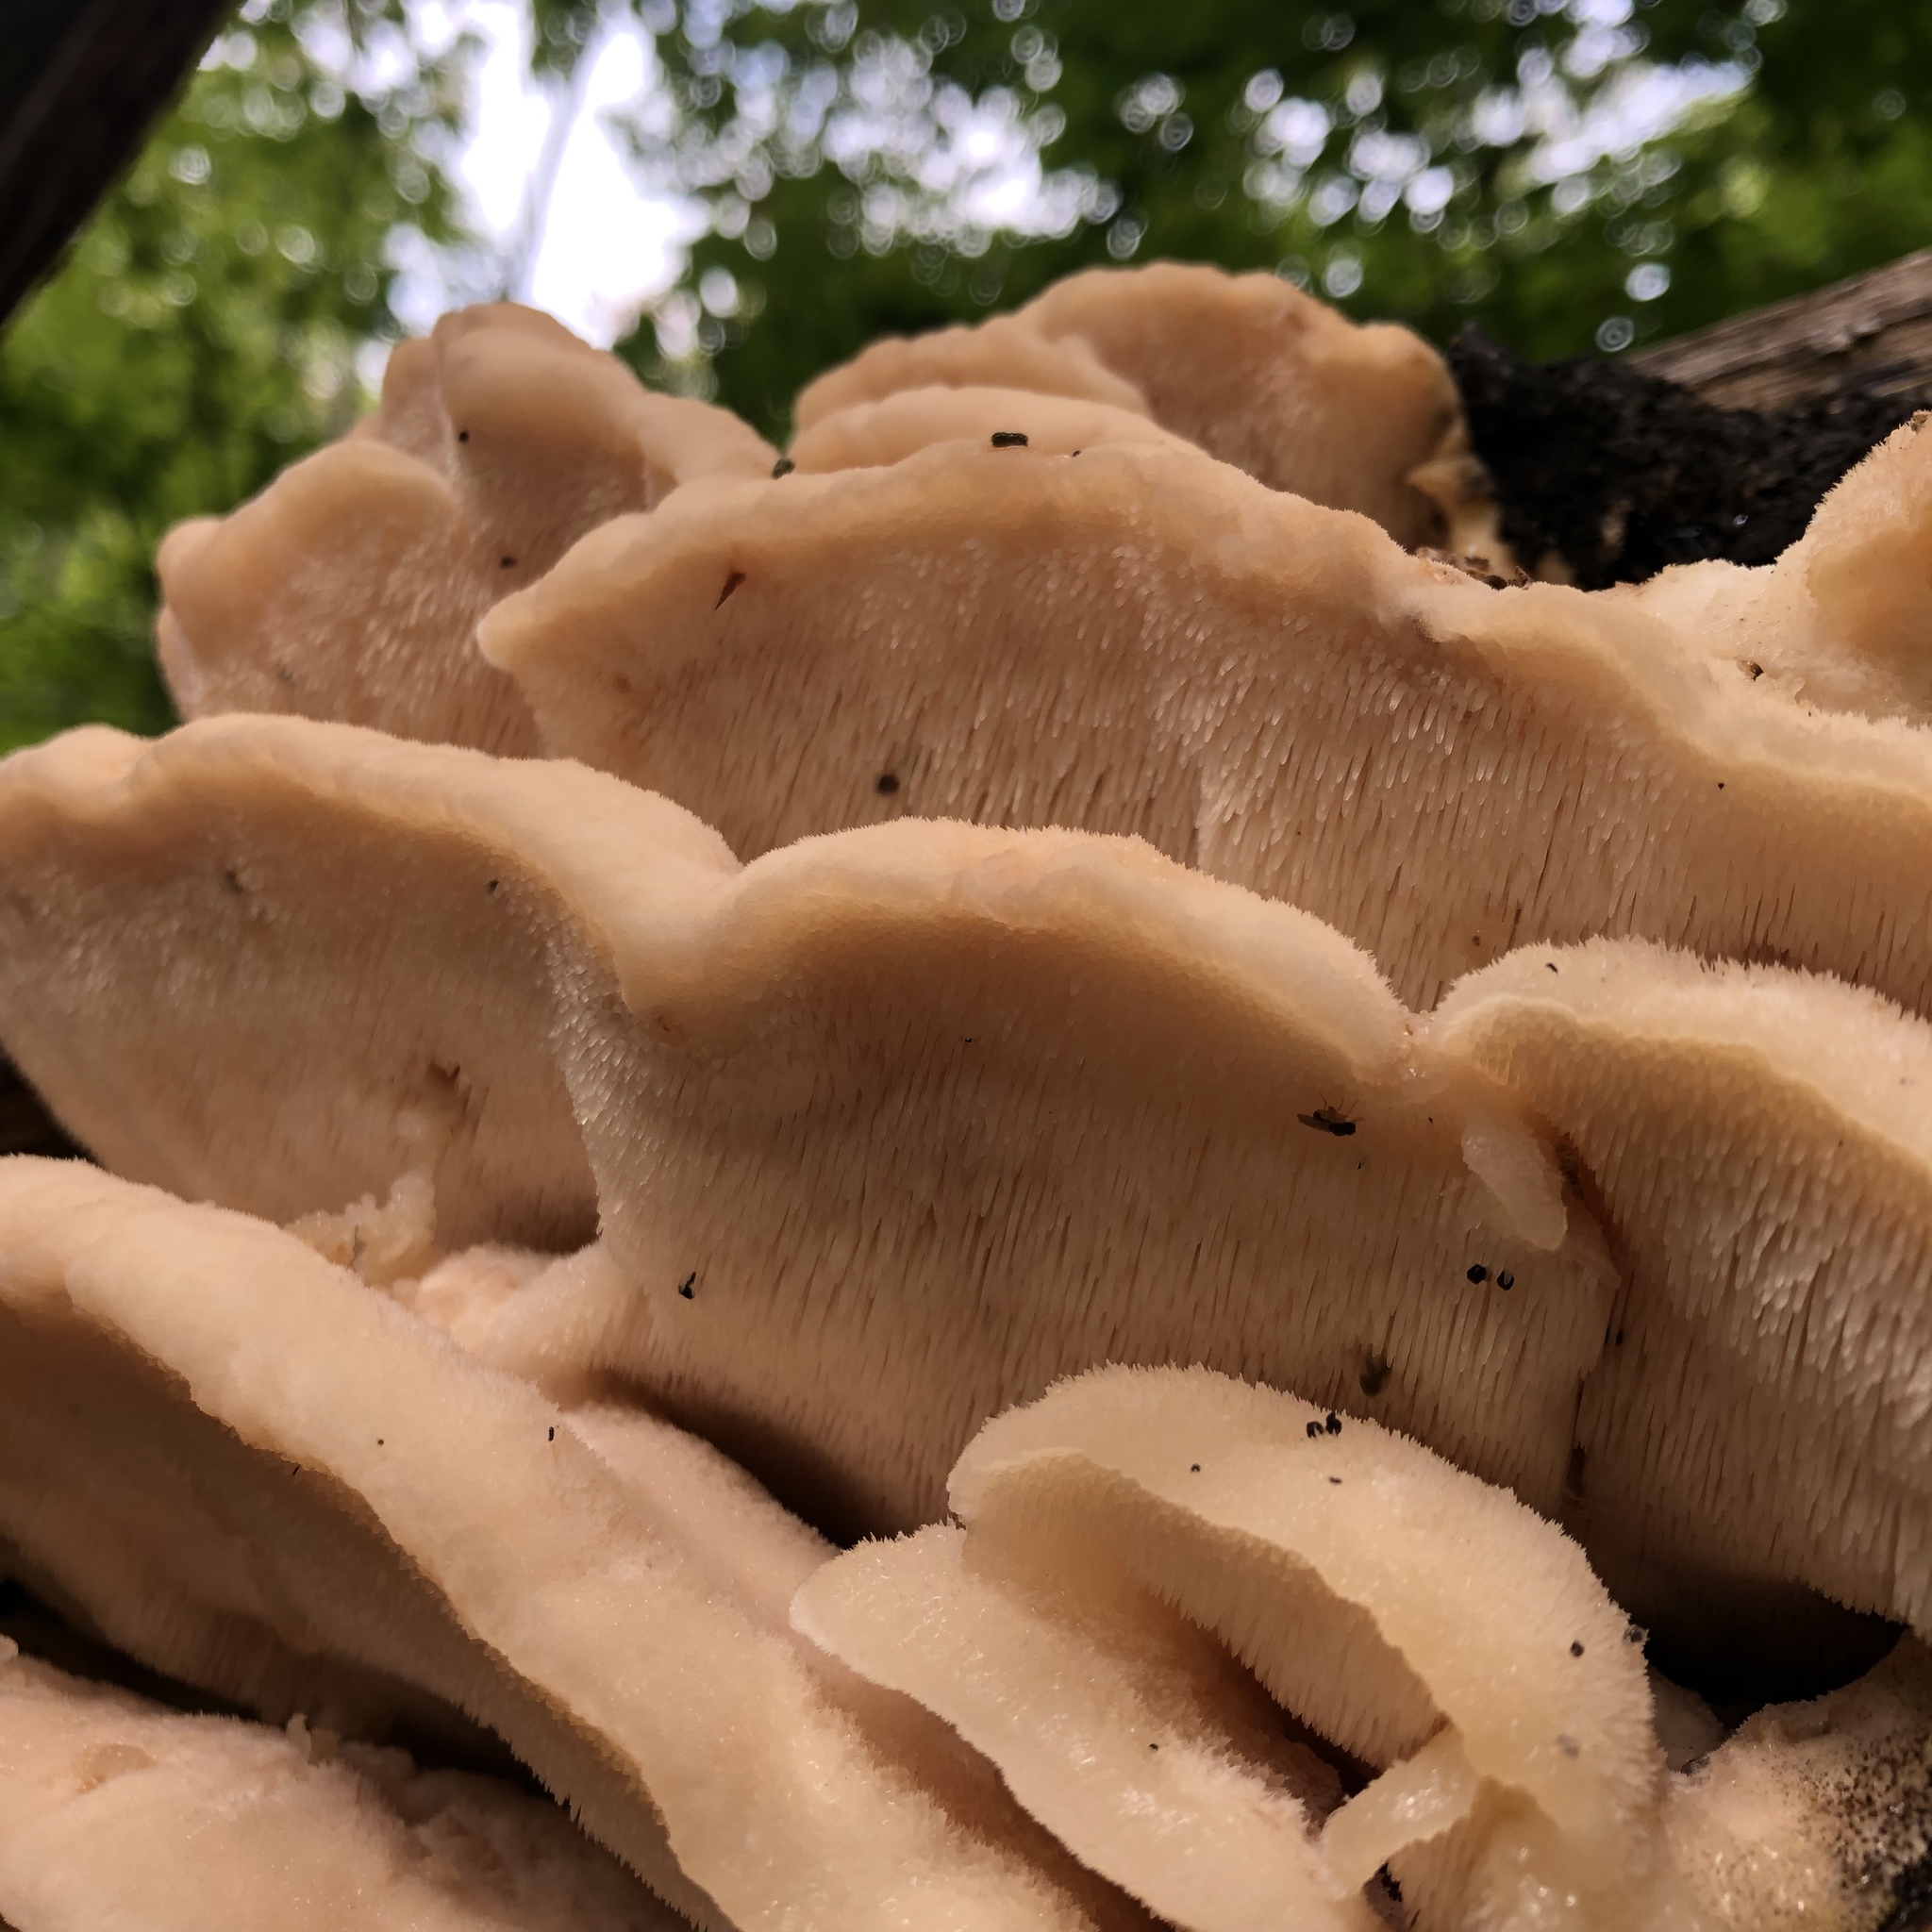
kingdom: Fungi
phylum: Basidiomycota
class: Agaricomycetes
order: Polyporales
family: Meruliaceae
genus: Climacodon
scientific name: Climacodon septentrionalis
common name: Northern tooth
